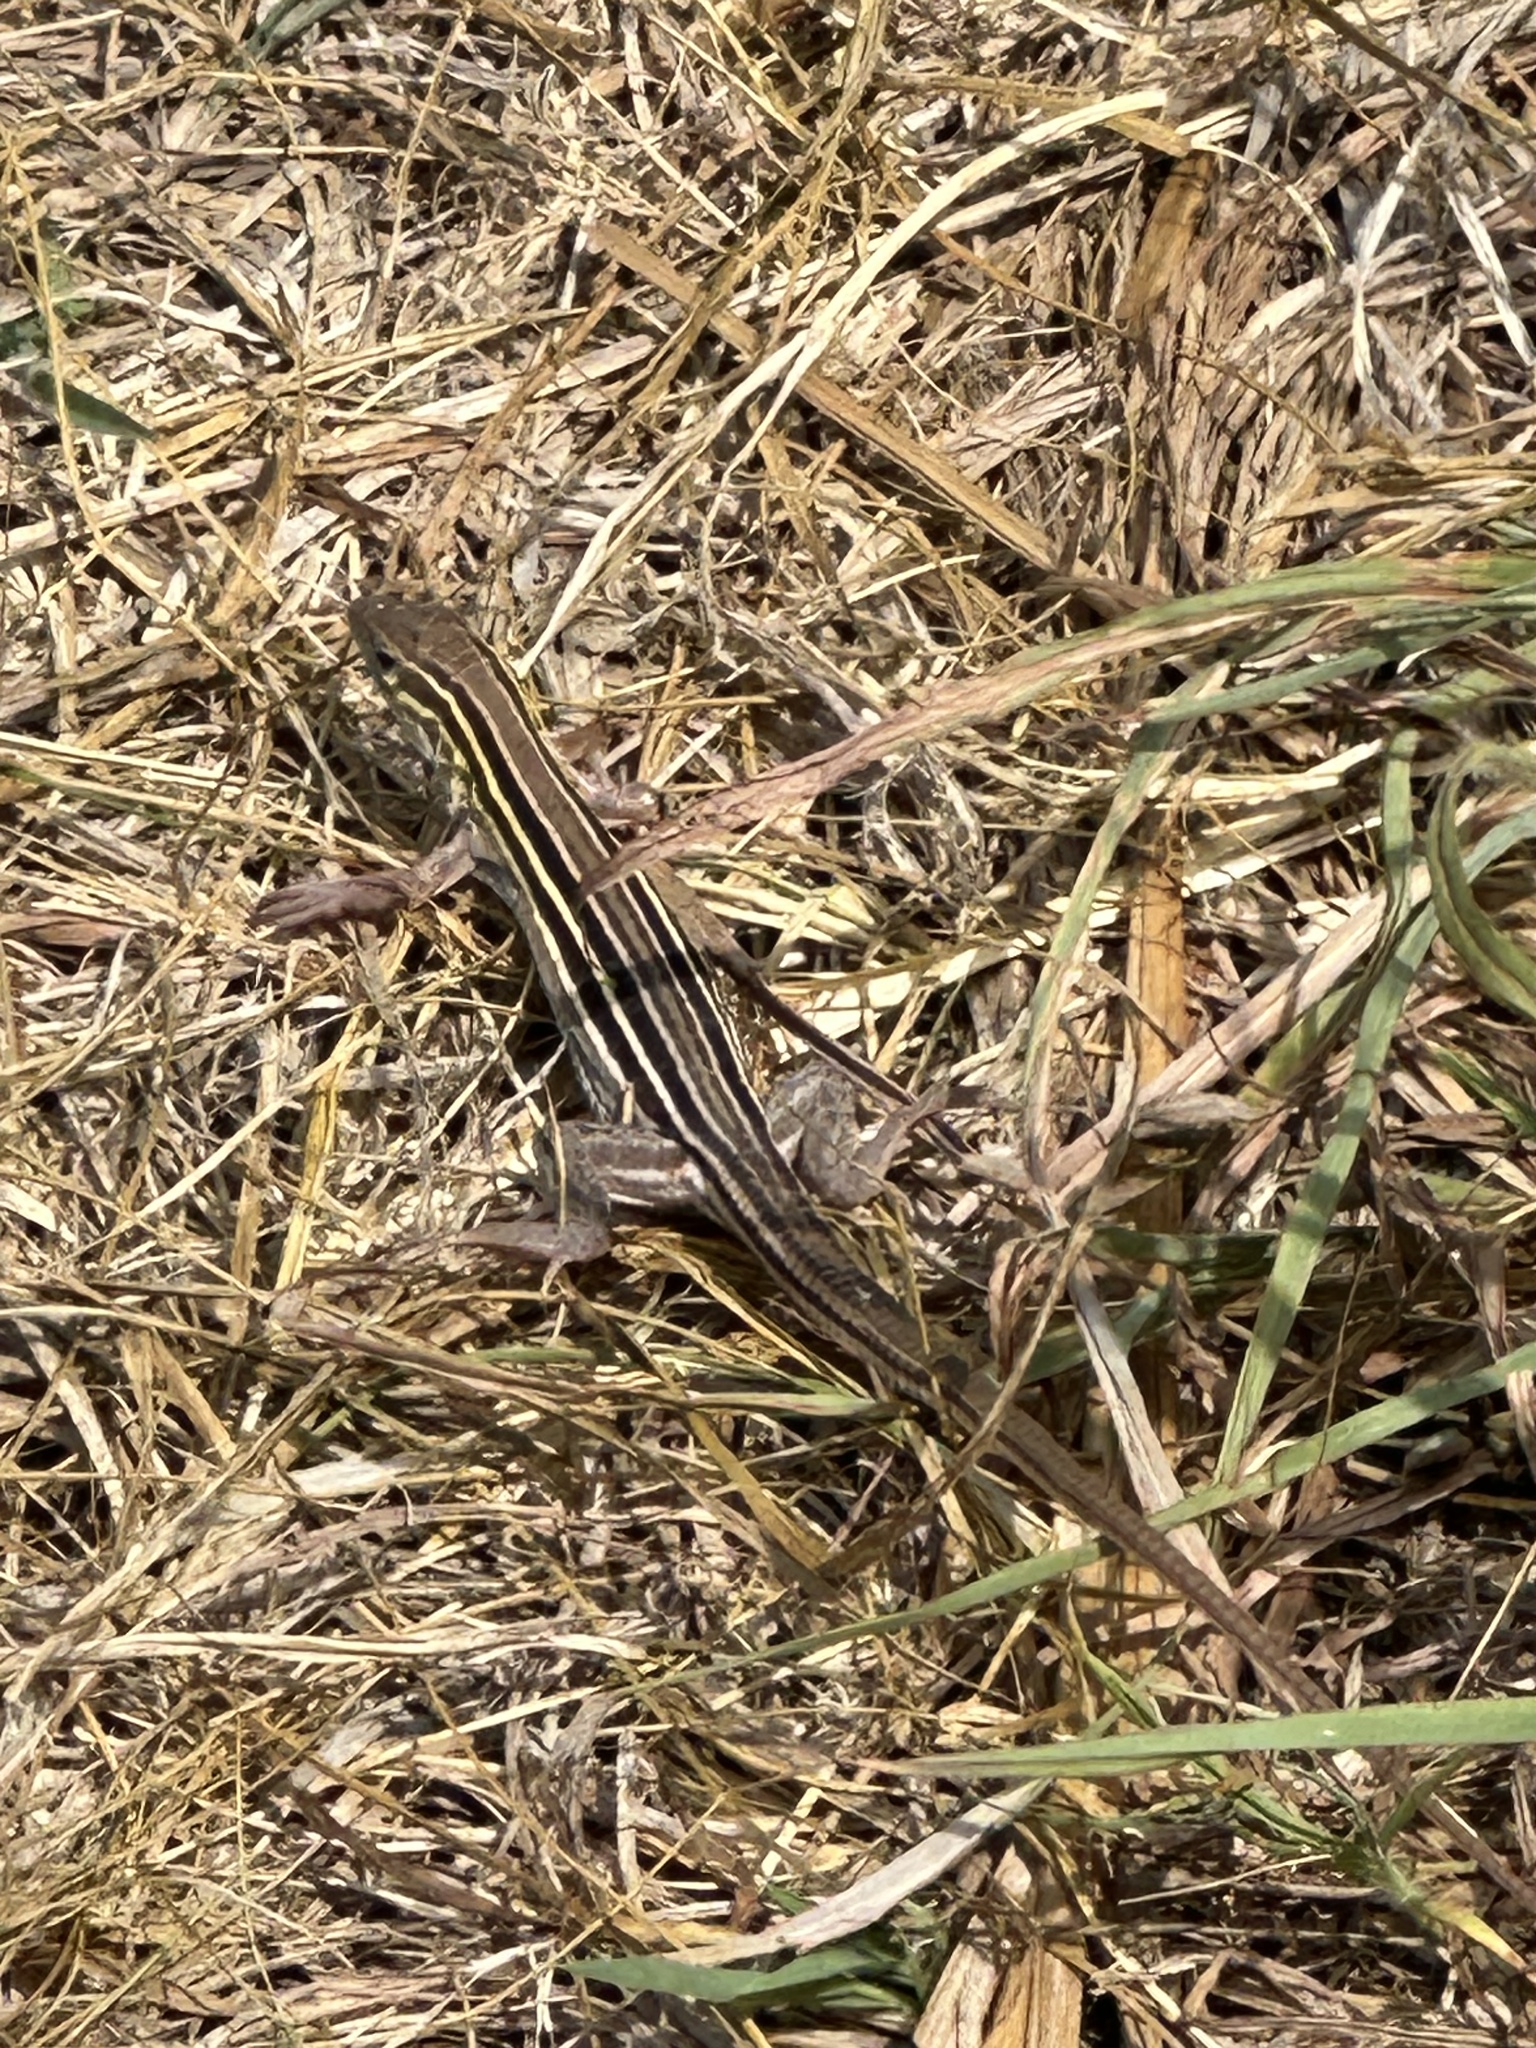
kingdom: Animalia
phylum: Chordata
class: Squamata
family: Teiidae
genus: Aspidoscelis
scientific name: Aspidoscelis sexlineatus
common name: Six-lined racerunner
